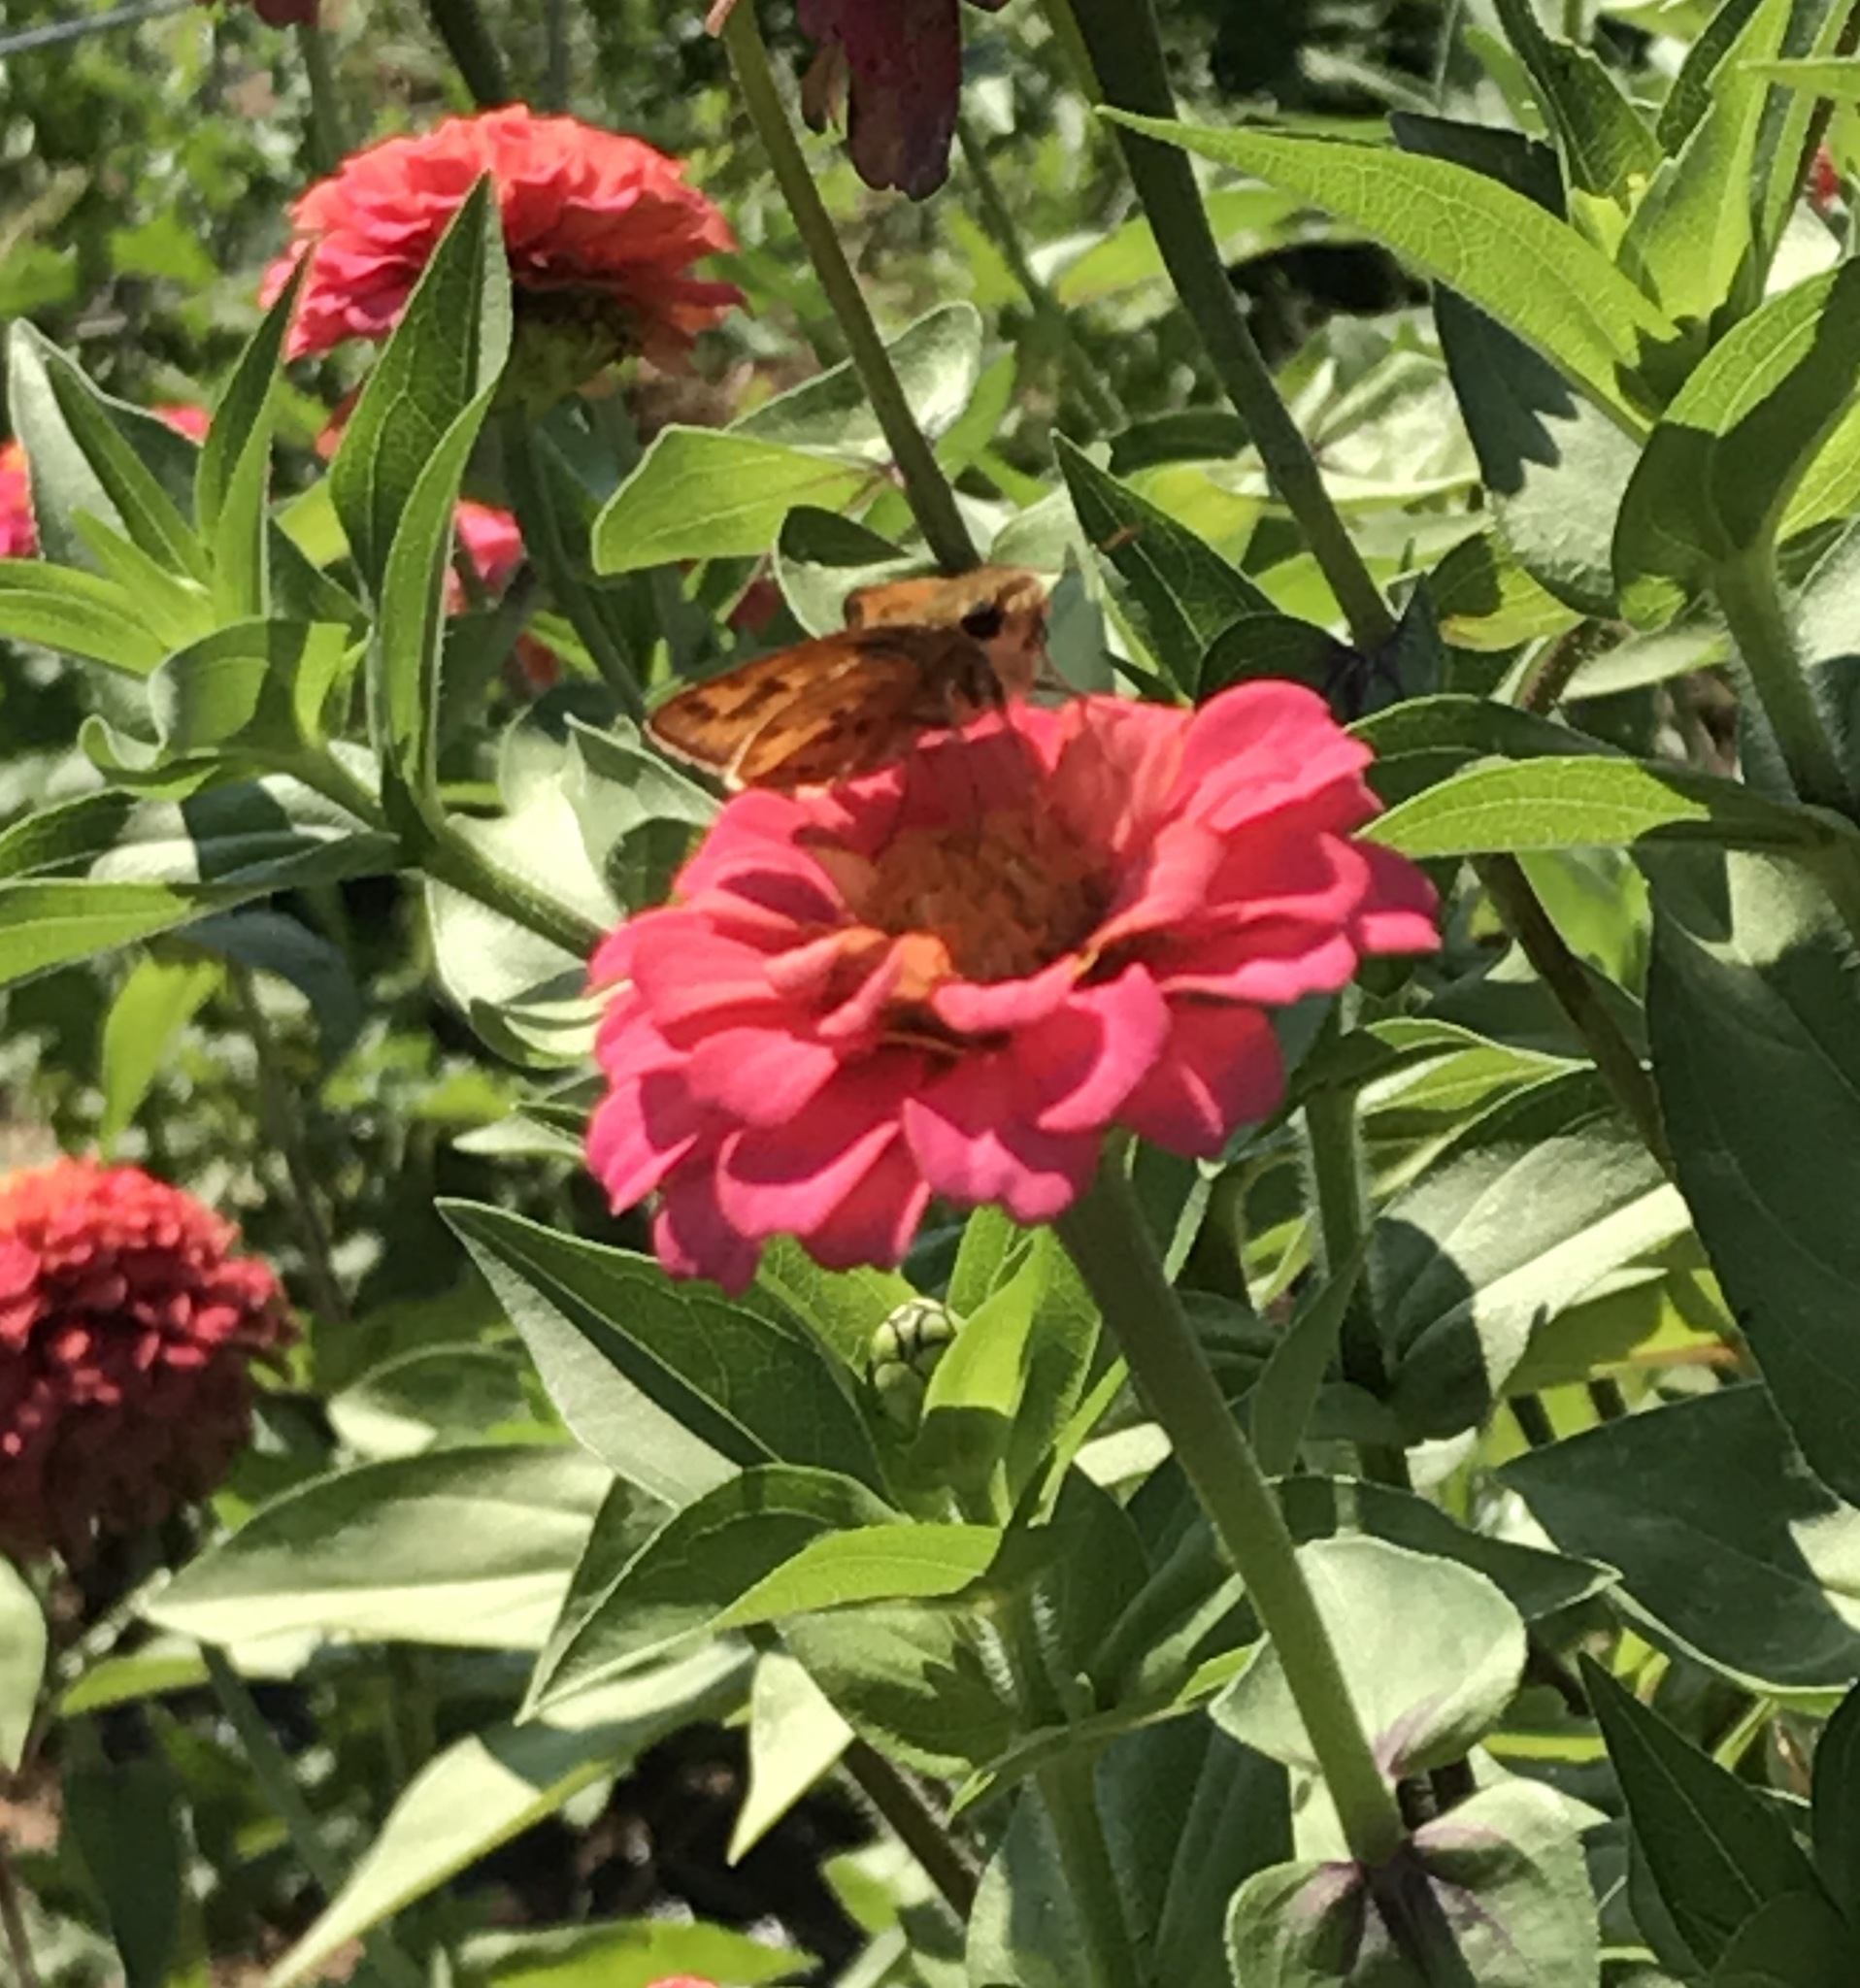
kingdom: Animalia
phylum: Arthropoda
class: Insecta
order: Lepidoptera
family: Hesperiidae
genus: Hylephila
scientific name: Hylephila phyleus
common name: Fiery skipper
